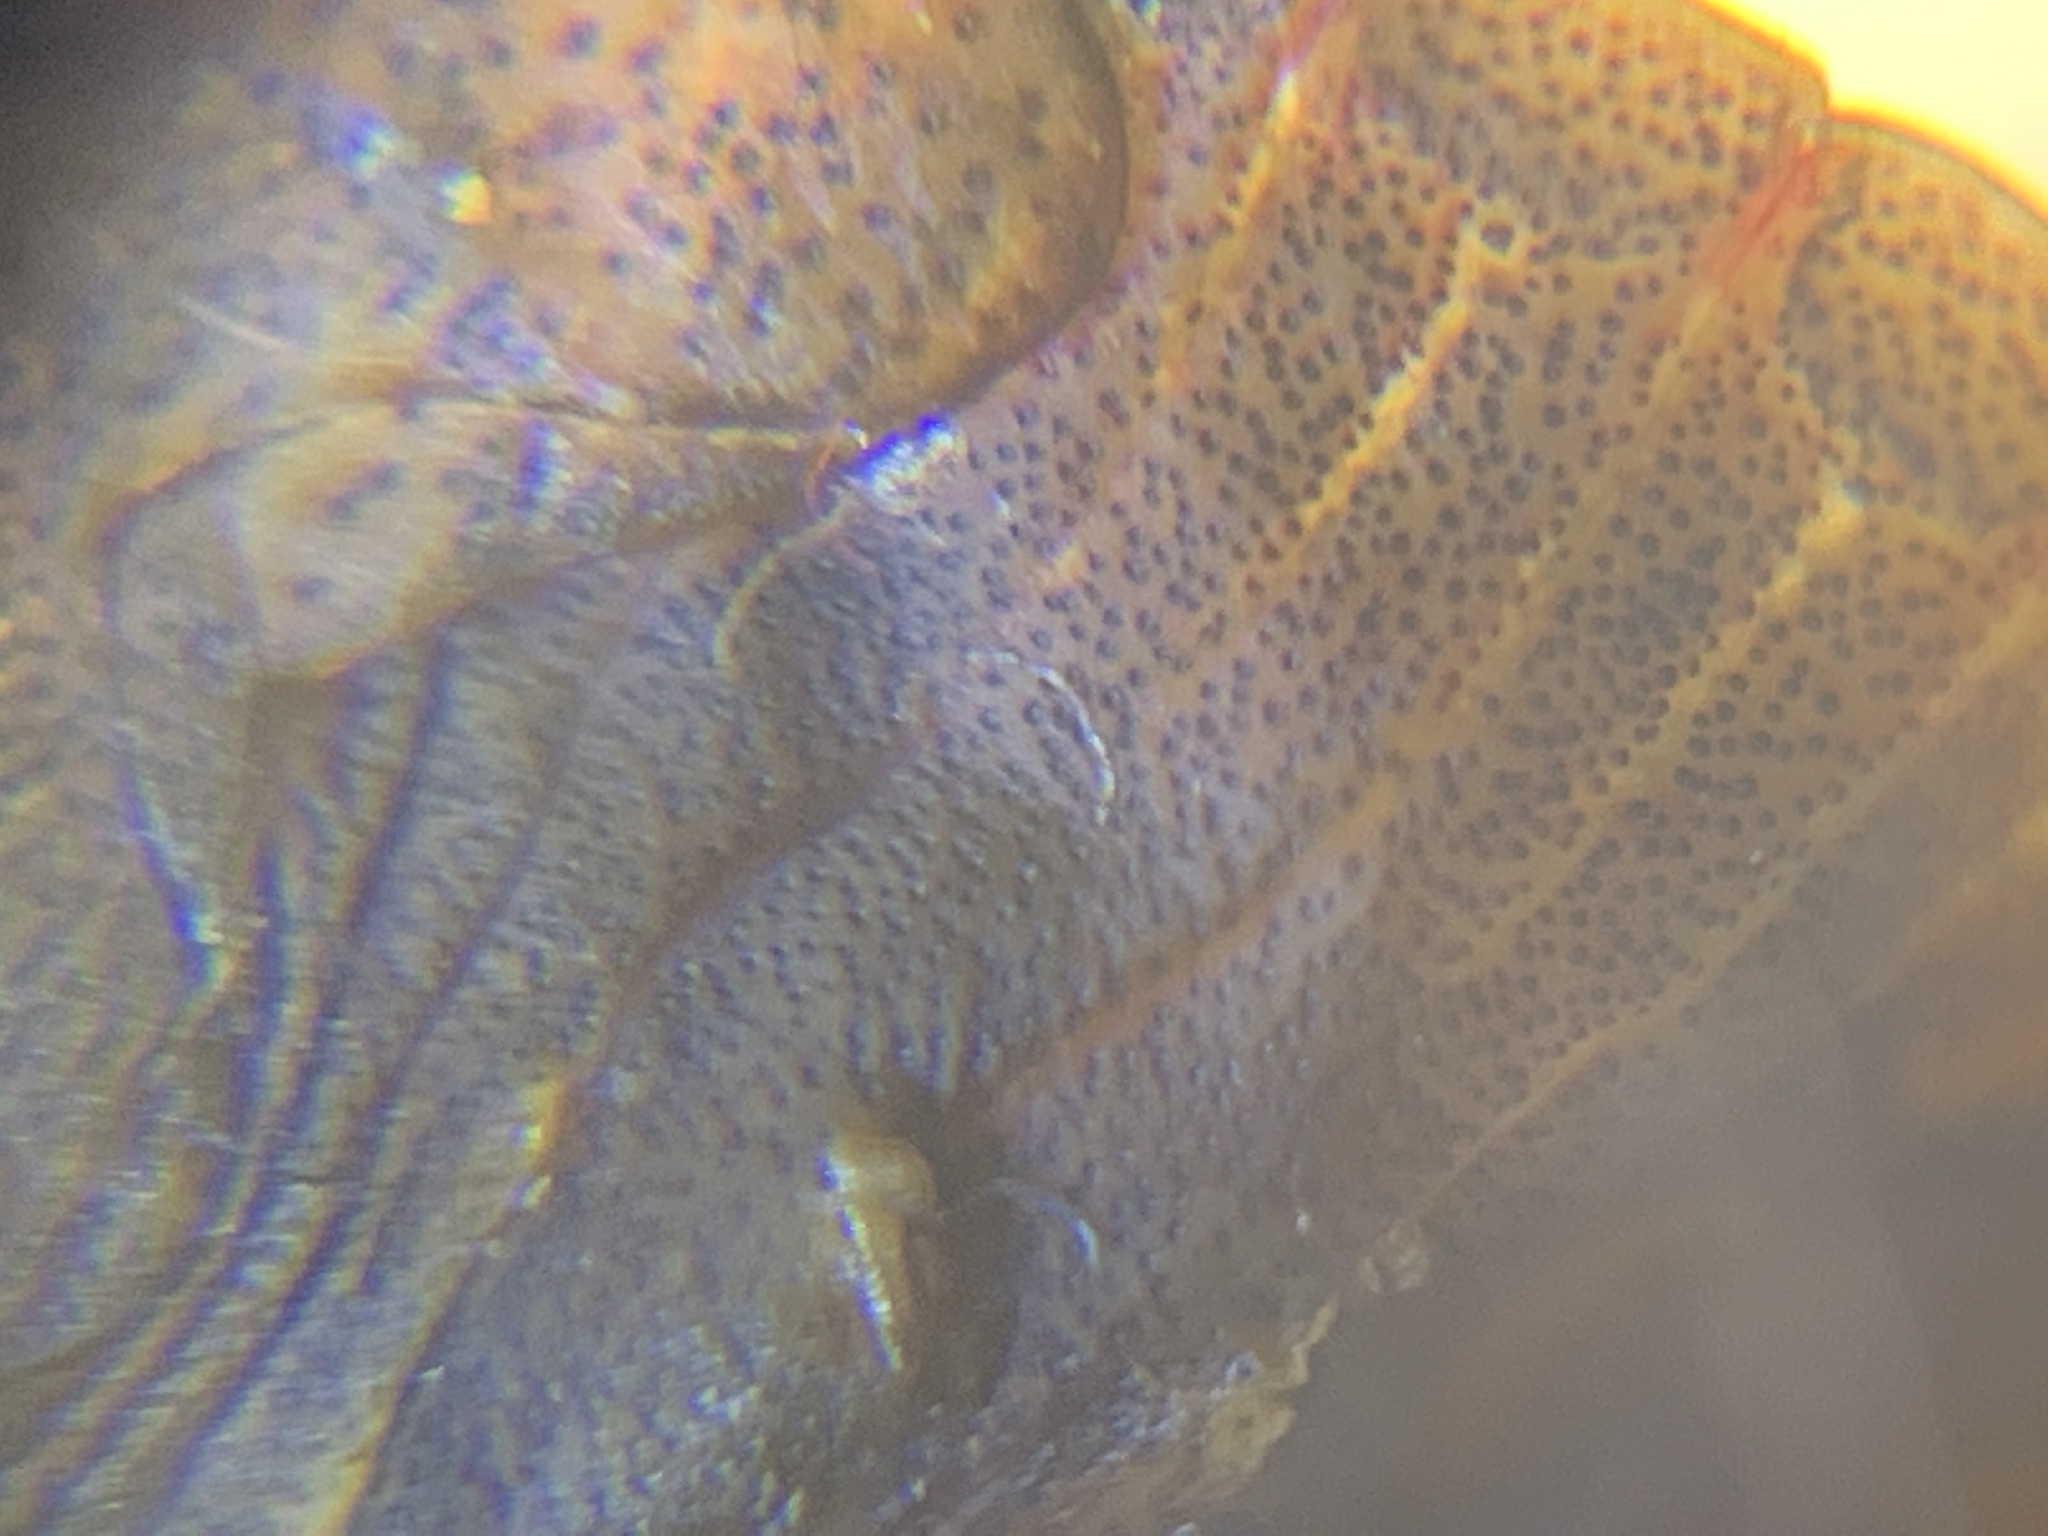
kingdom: Animalia
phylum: Arthropoda
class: Insecta
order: Hemiptera
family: Pentatomidae
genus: Menecles
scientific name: Menecles insertus
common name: Elf shoe stink bug
